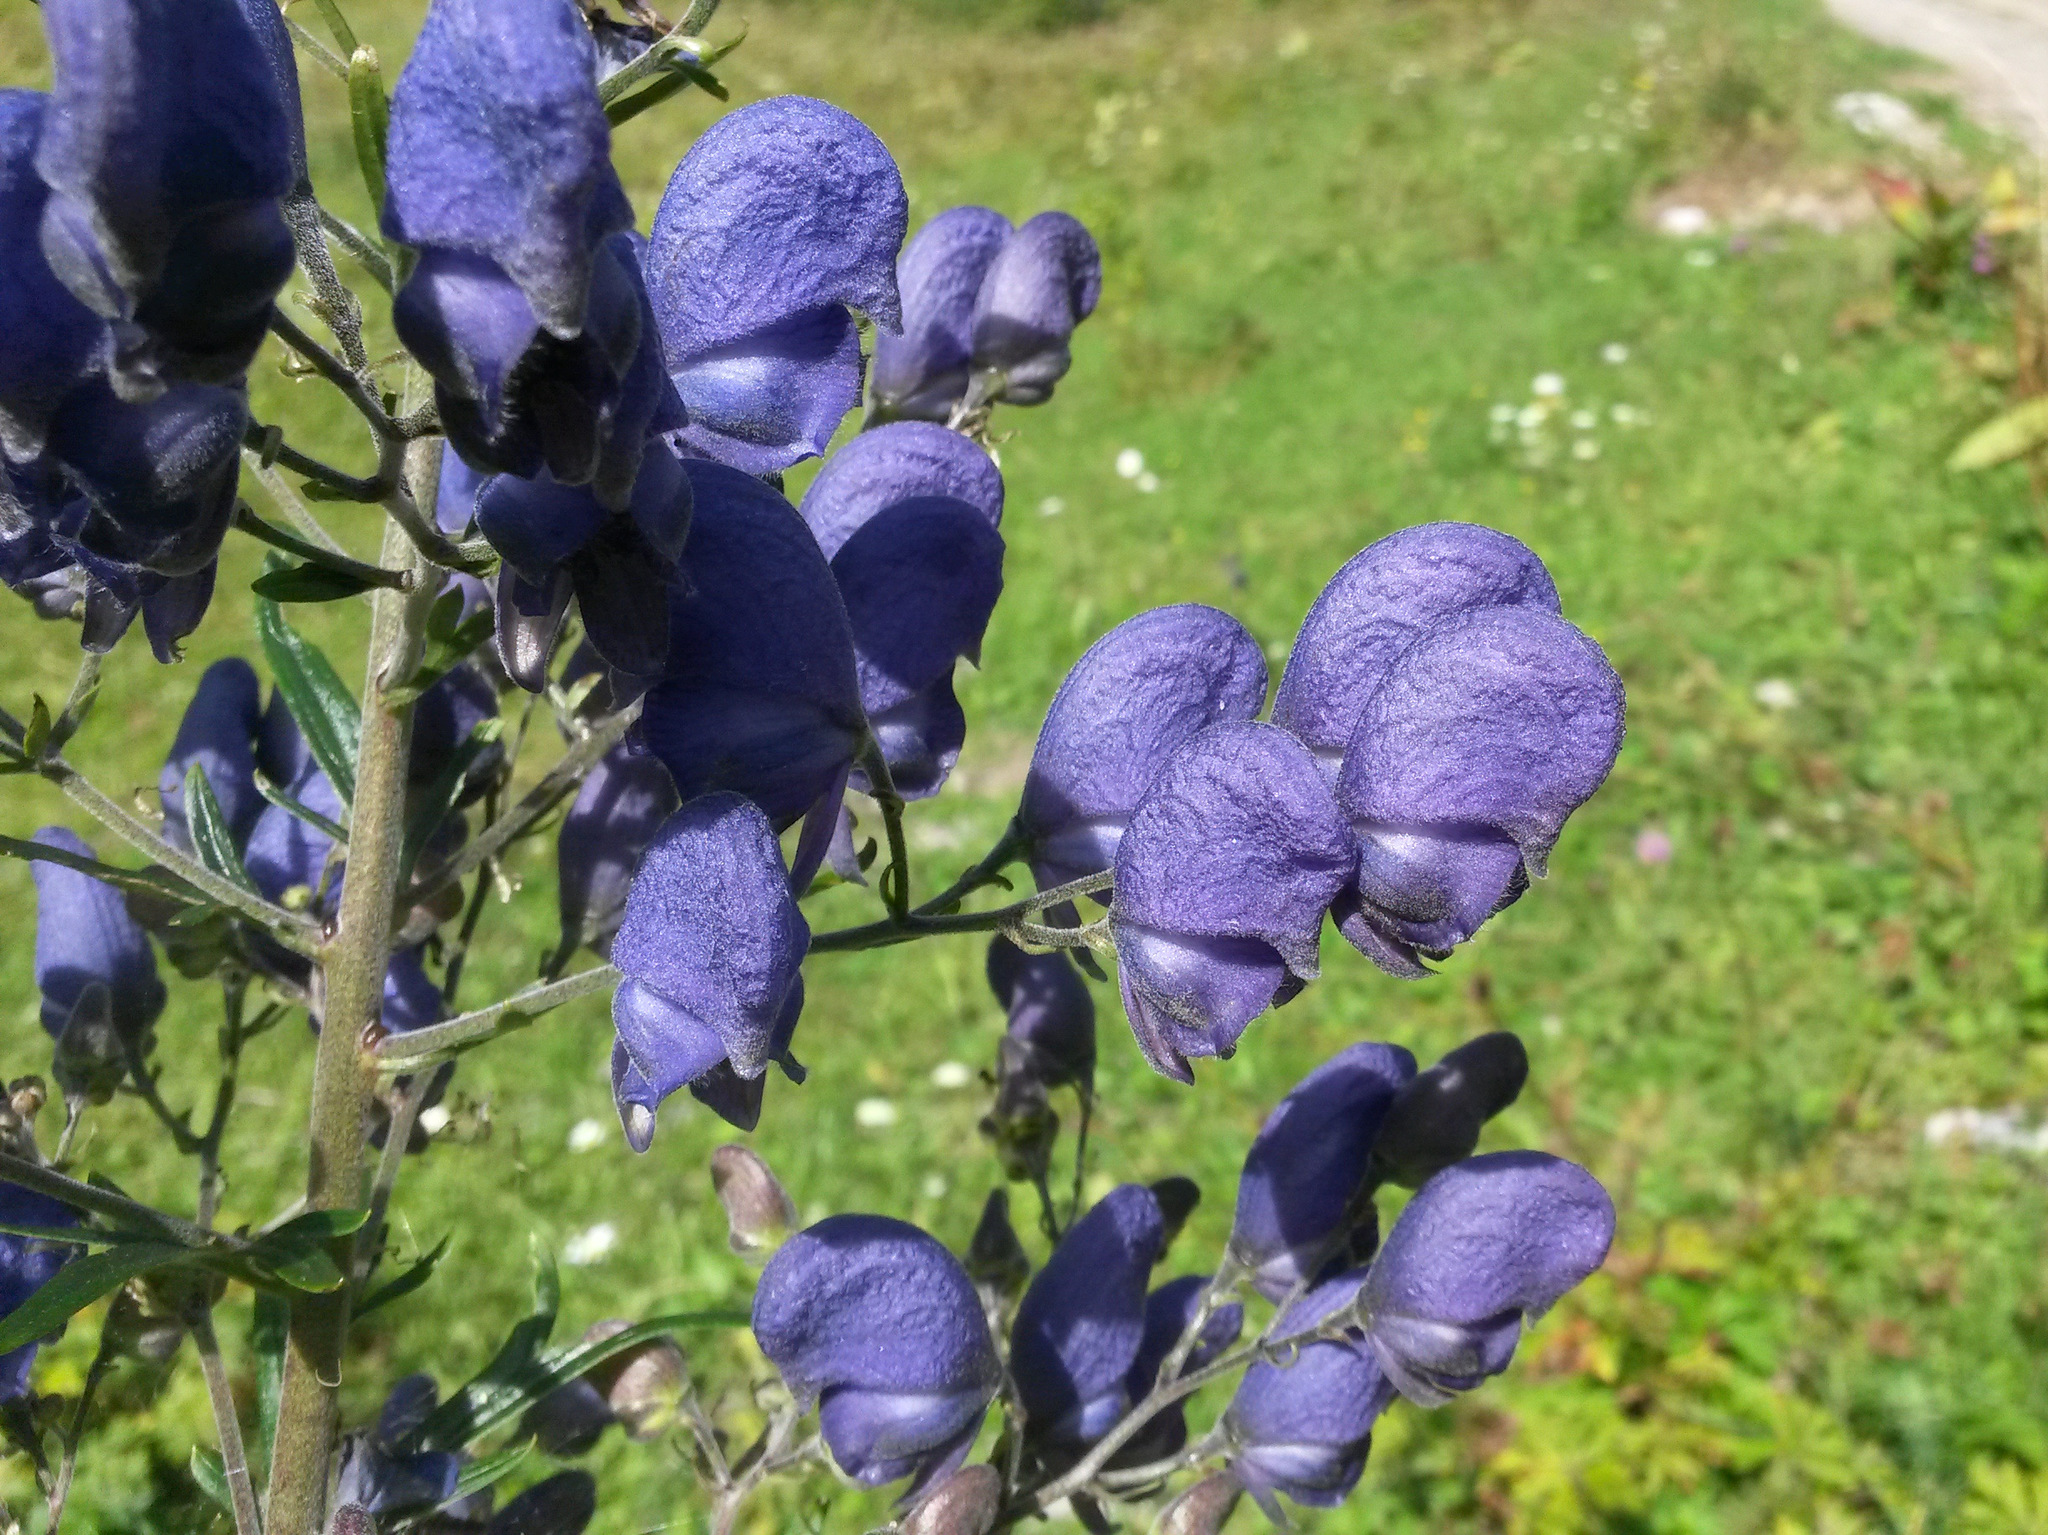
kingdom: Plantae
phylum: Tracheophyta
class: Magnoliopsida
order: Ranunculales
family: Ranunculaceae
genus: Aconitum
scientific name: Aconitum napellus
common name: Garden monkshood
